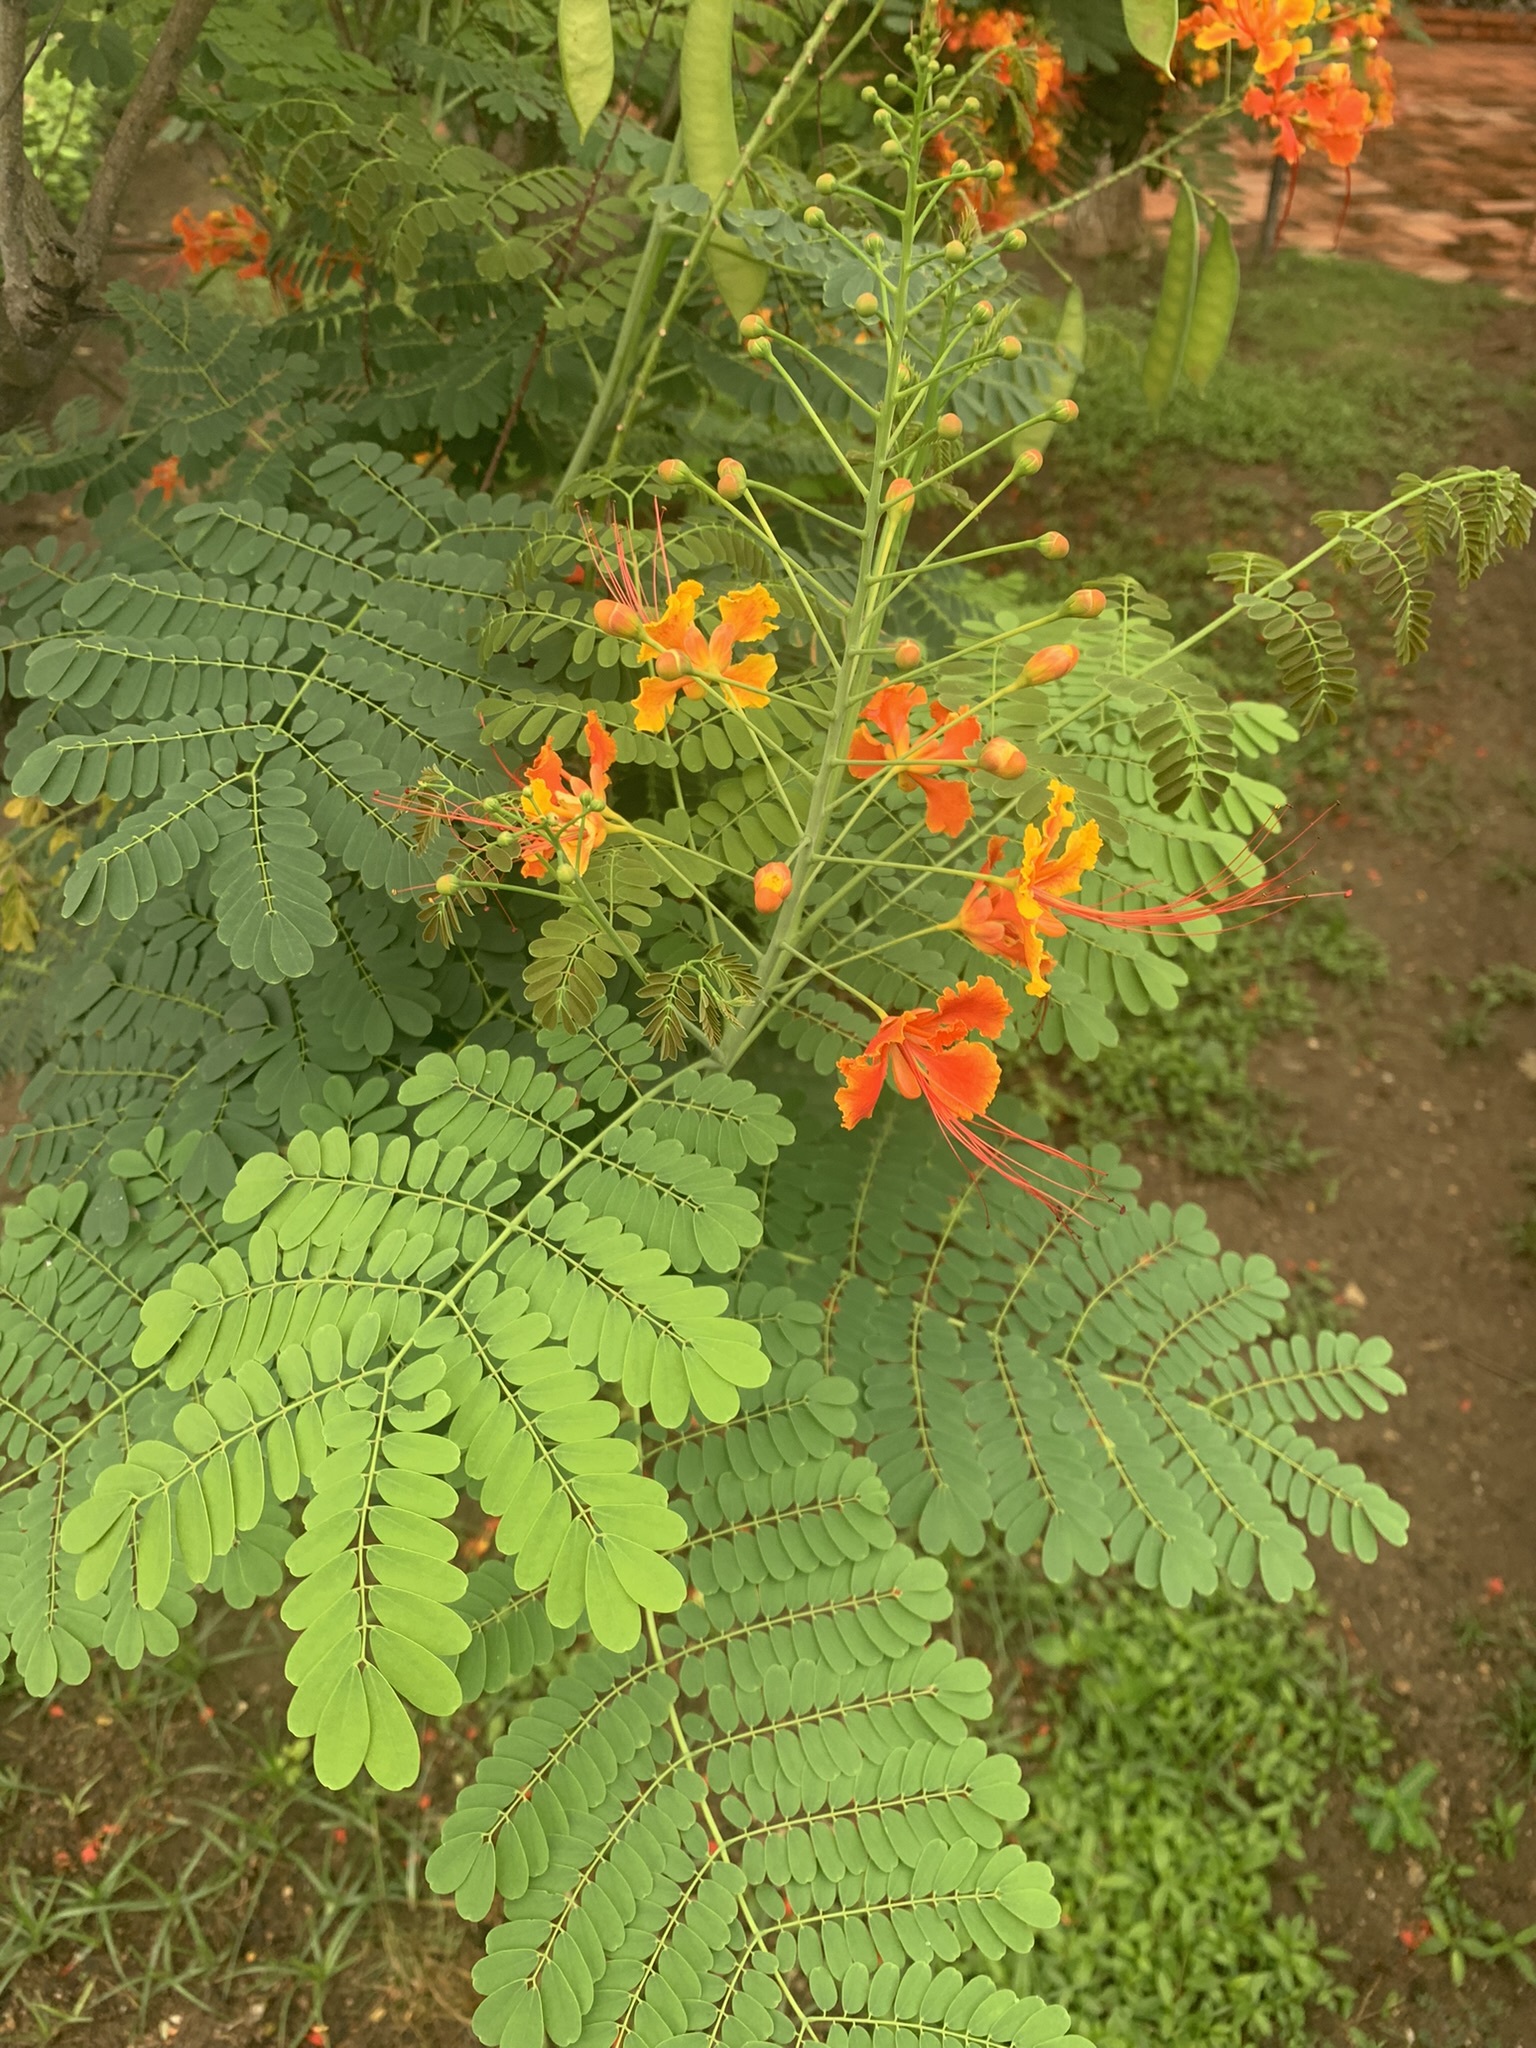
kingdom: Plantae
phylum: Tracheophyta
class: Magnoliopsida
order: Fabales
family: Fabaceae
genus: Caesalpinia
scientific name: Caesalpinia pulcherrima
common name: Pride-of-barbados
